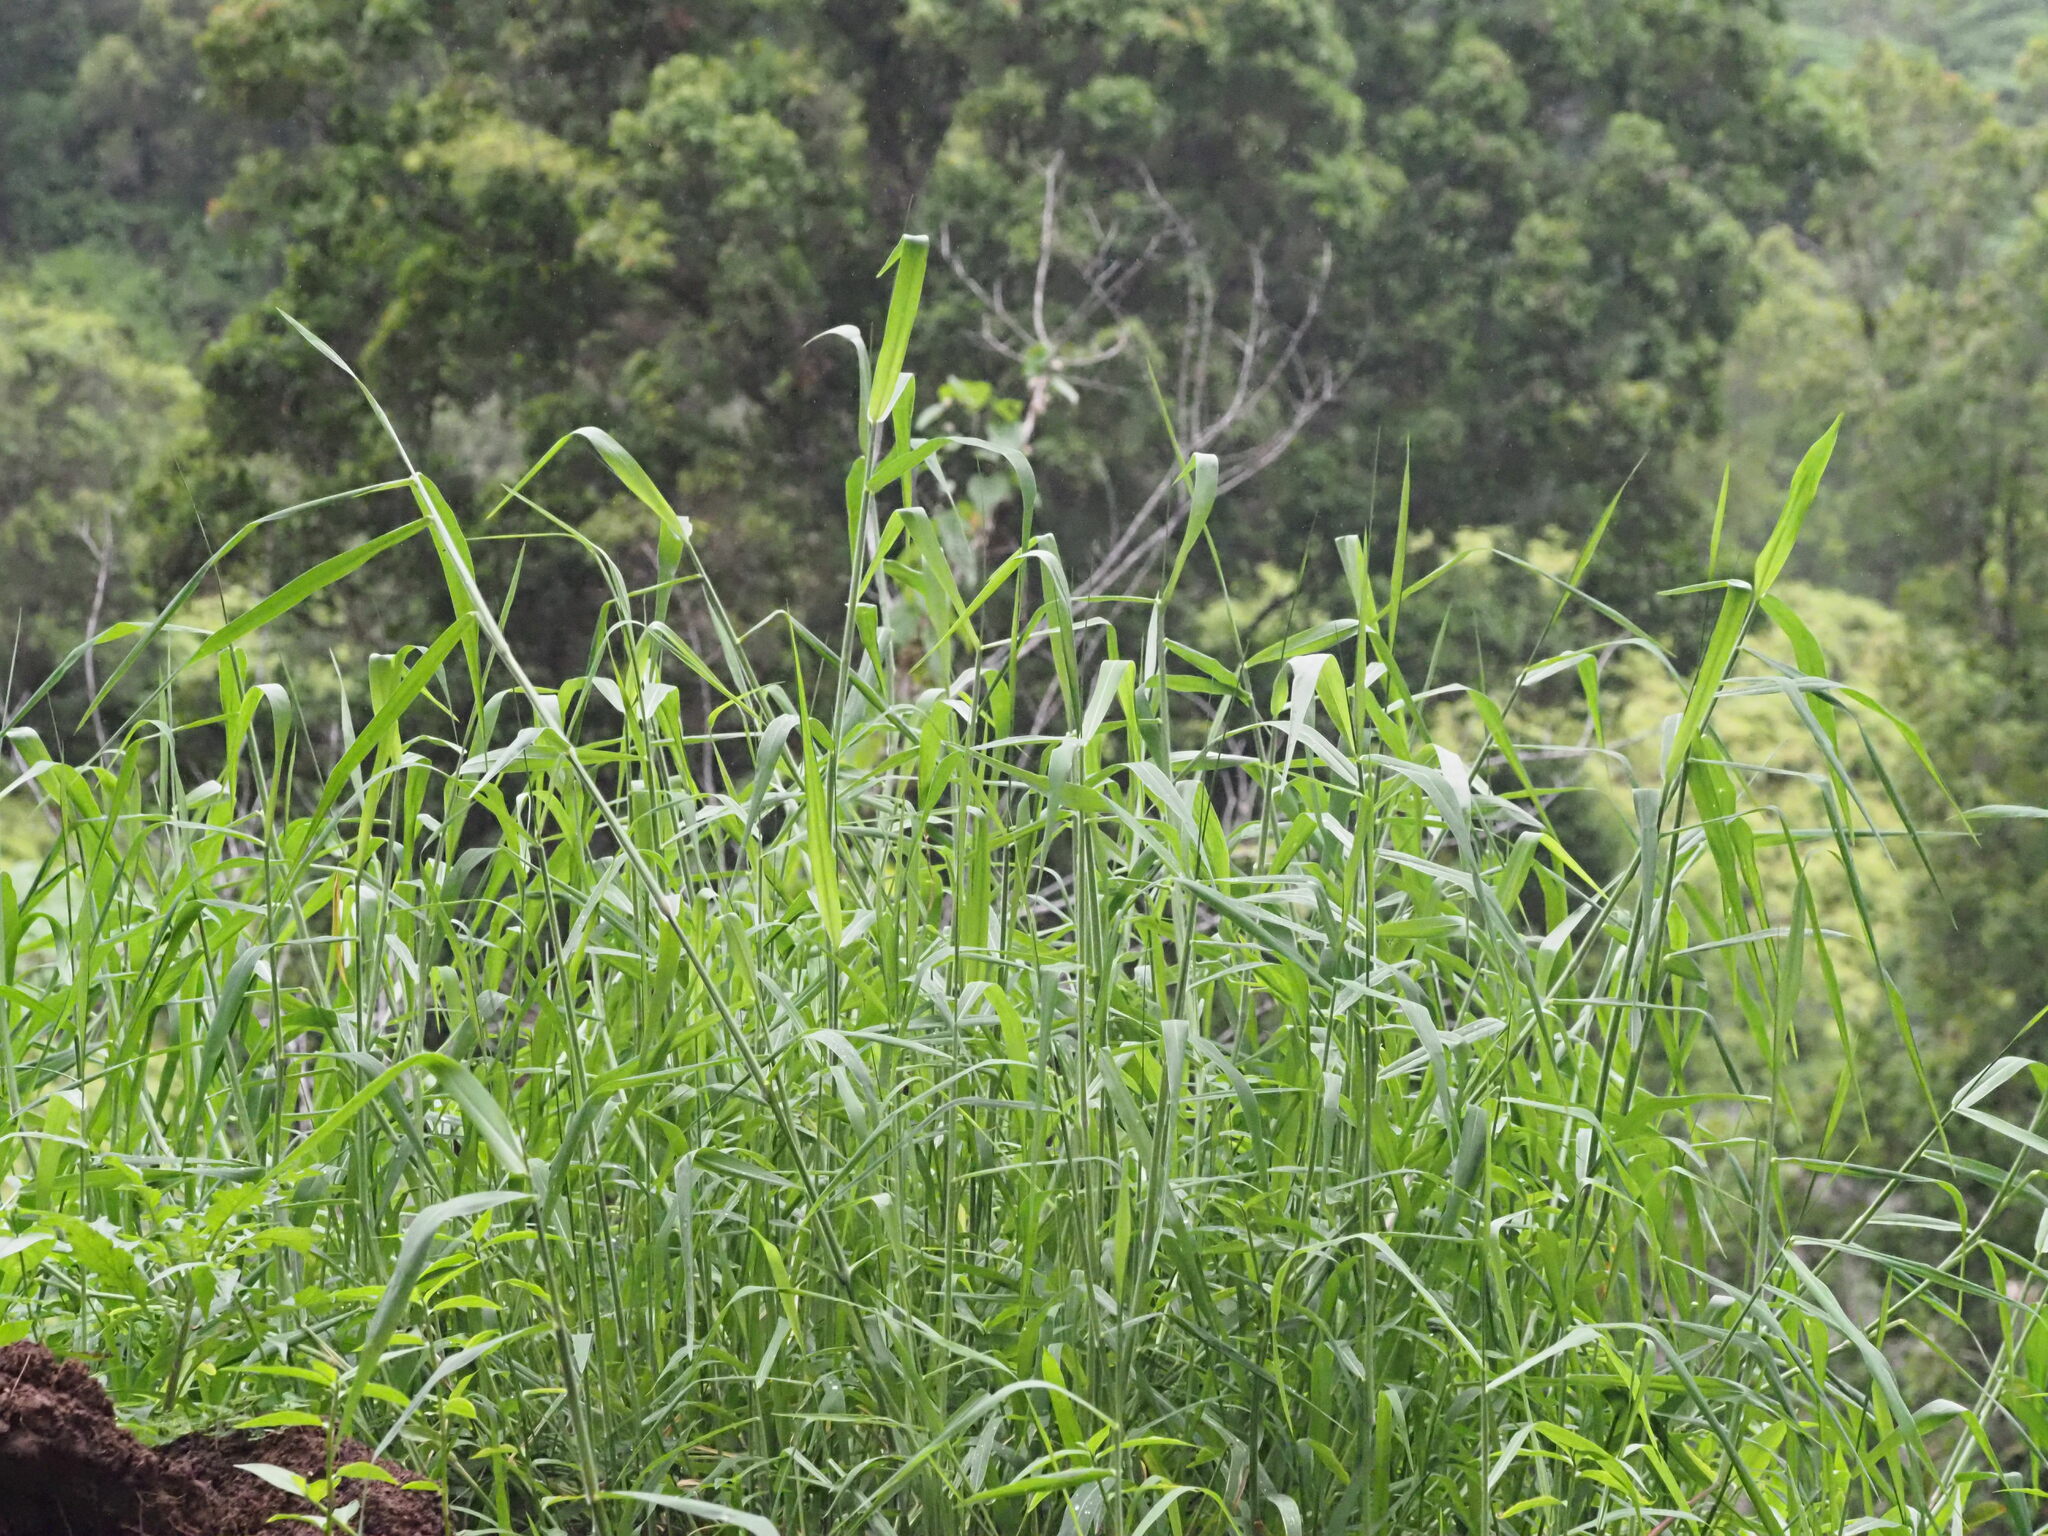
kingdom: Plantae
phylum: Tracheophyta
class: Liliopsida
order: Poales
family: Poaceae
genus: Urochloa
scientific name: Urochloa mutica
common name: Para grass
